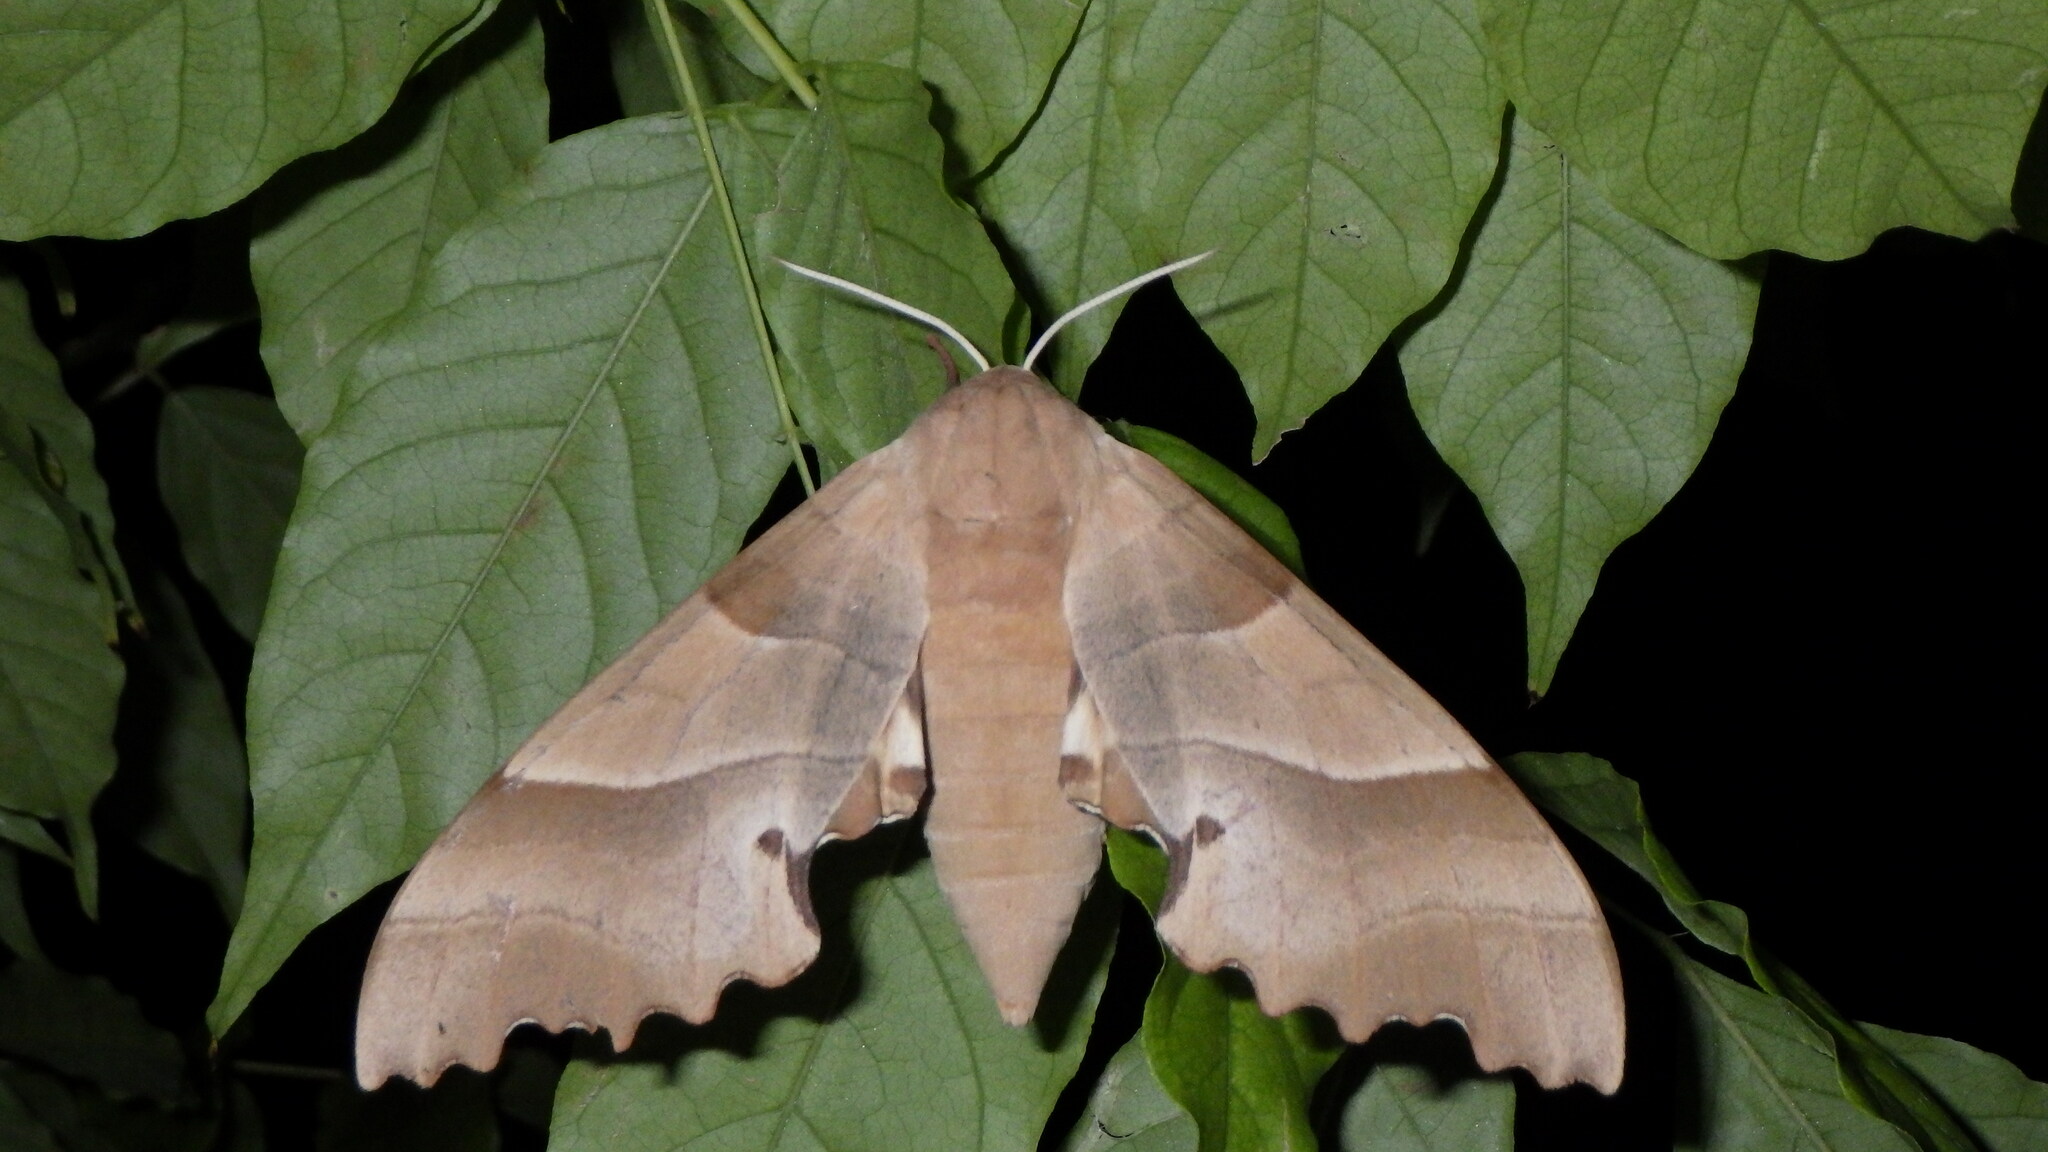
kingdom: Animalia
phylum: Arthropoda
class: Insecta
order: Lepidoptera
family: Sphingidae
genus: Marumba
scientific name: Marumba quercus
